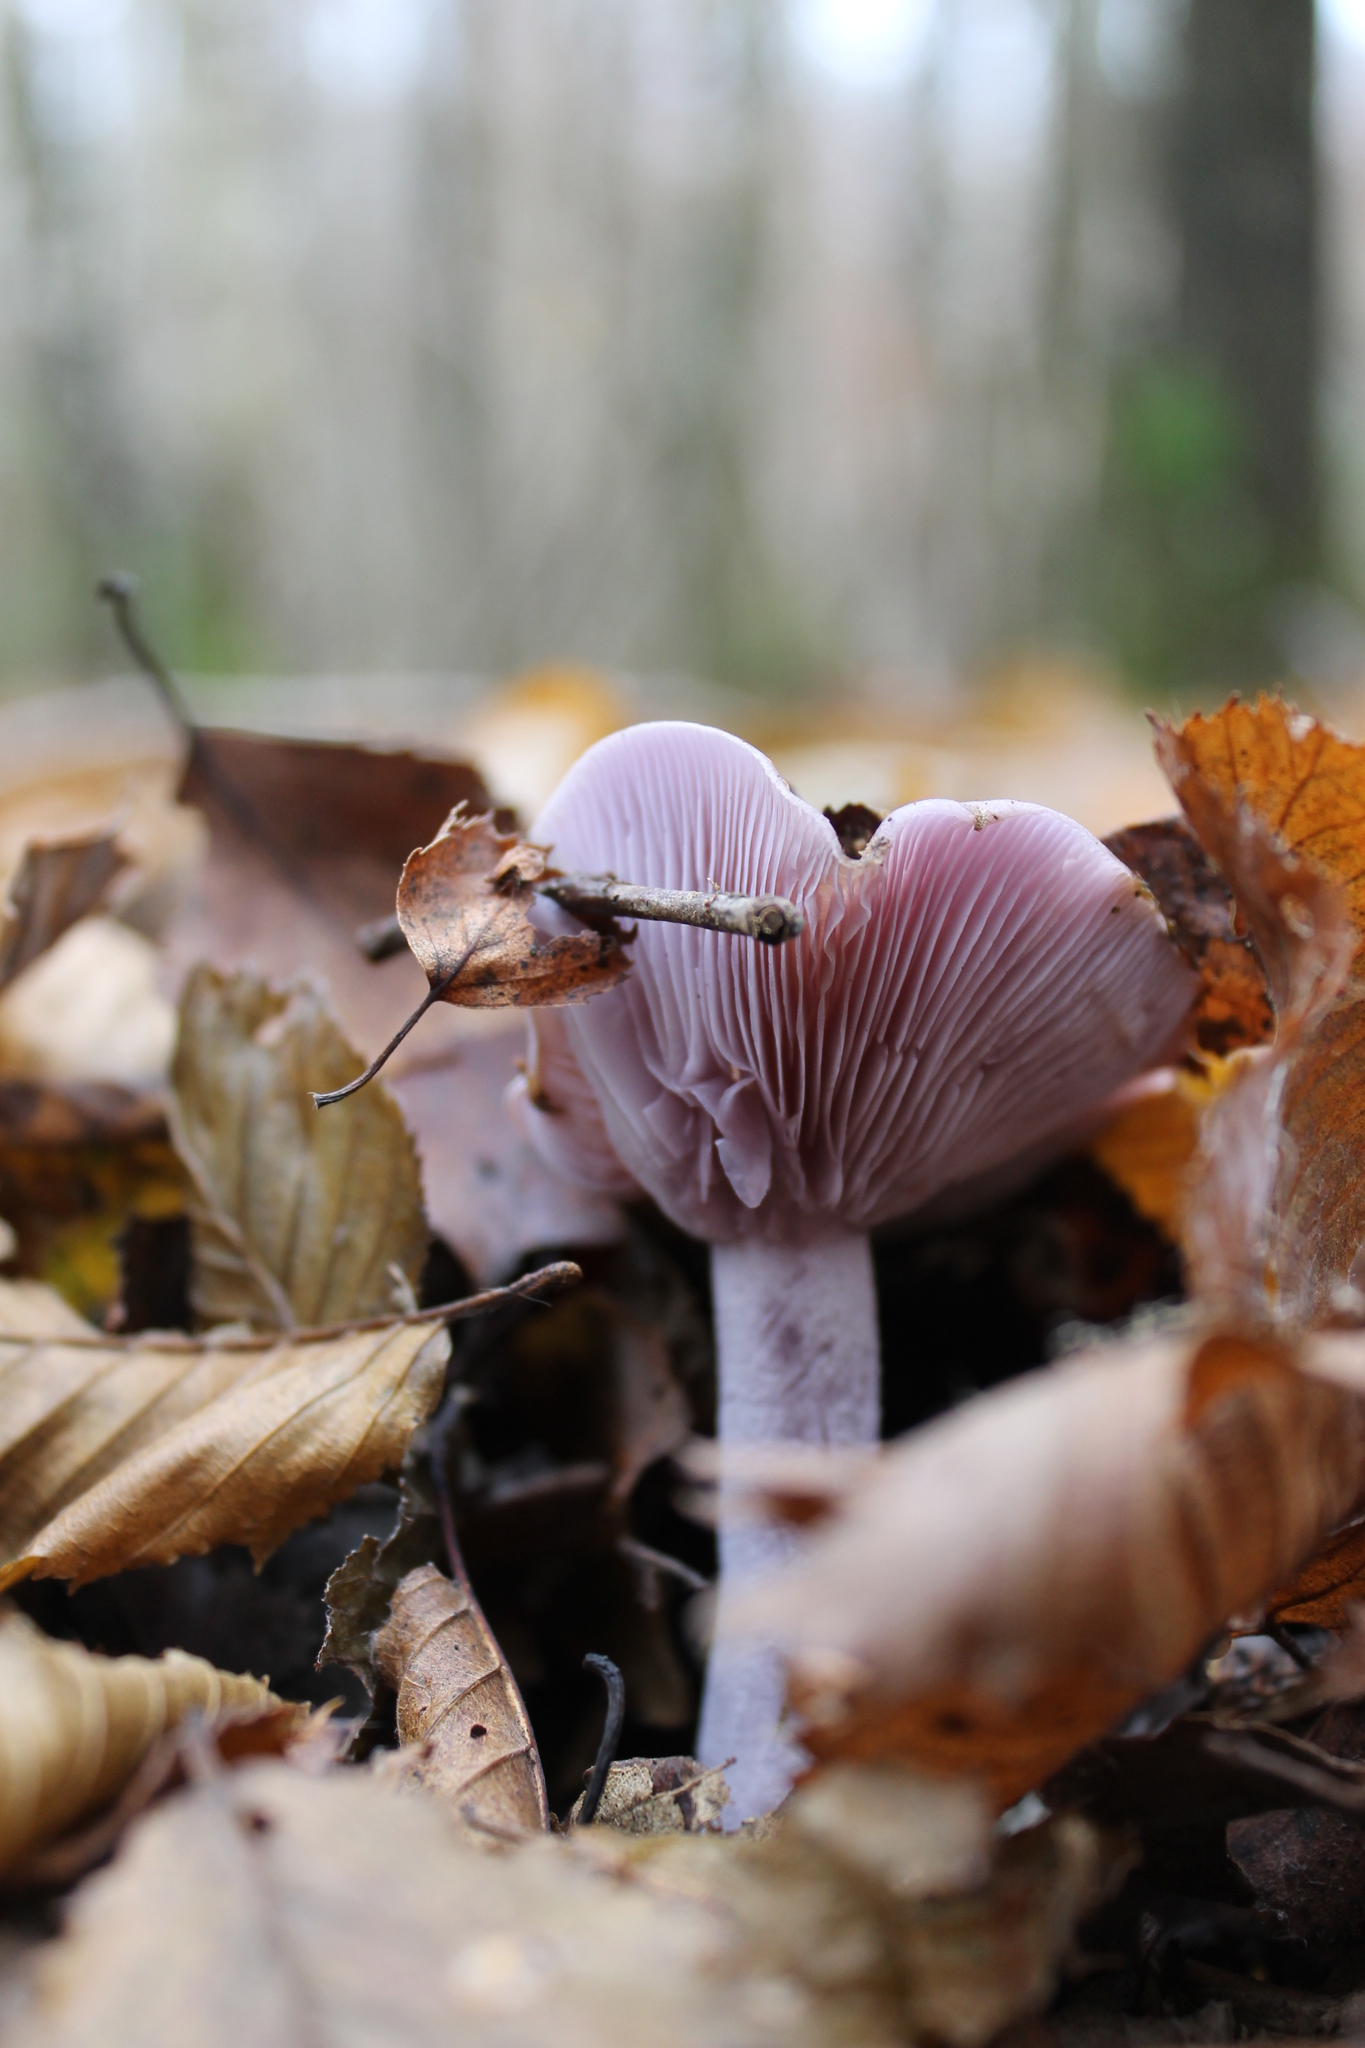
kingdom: Fungi
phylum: Basidiomycota
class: Agaricomycetes
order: Agaricales
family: Tricholomataceae
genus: Collybia
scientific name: Collybia
